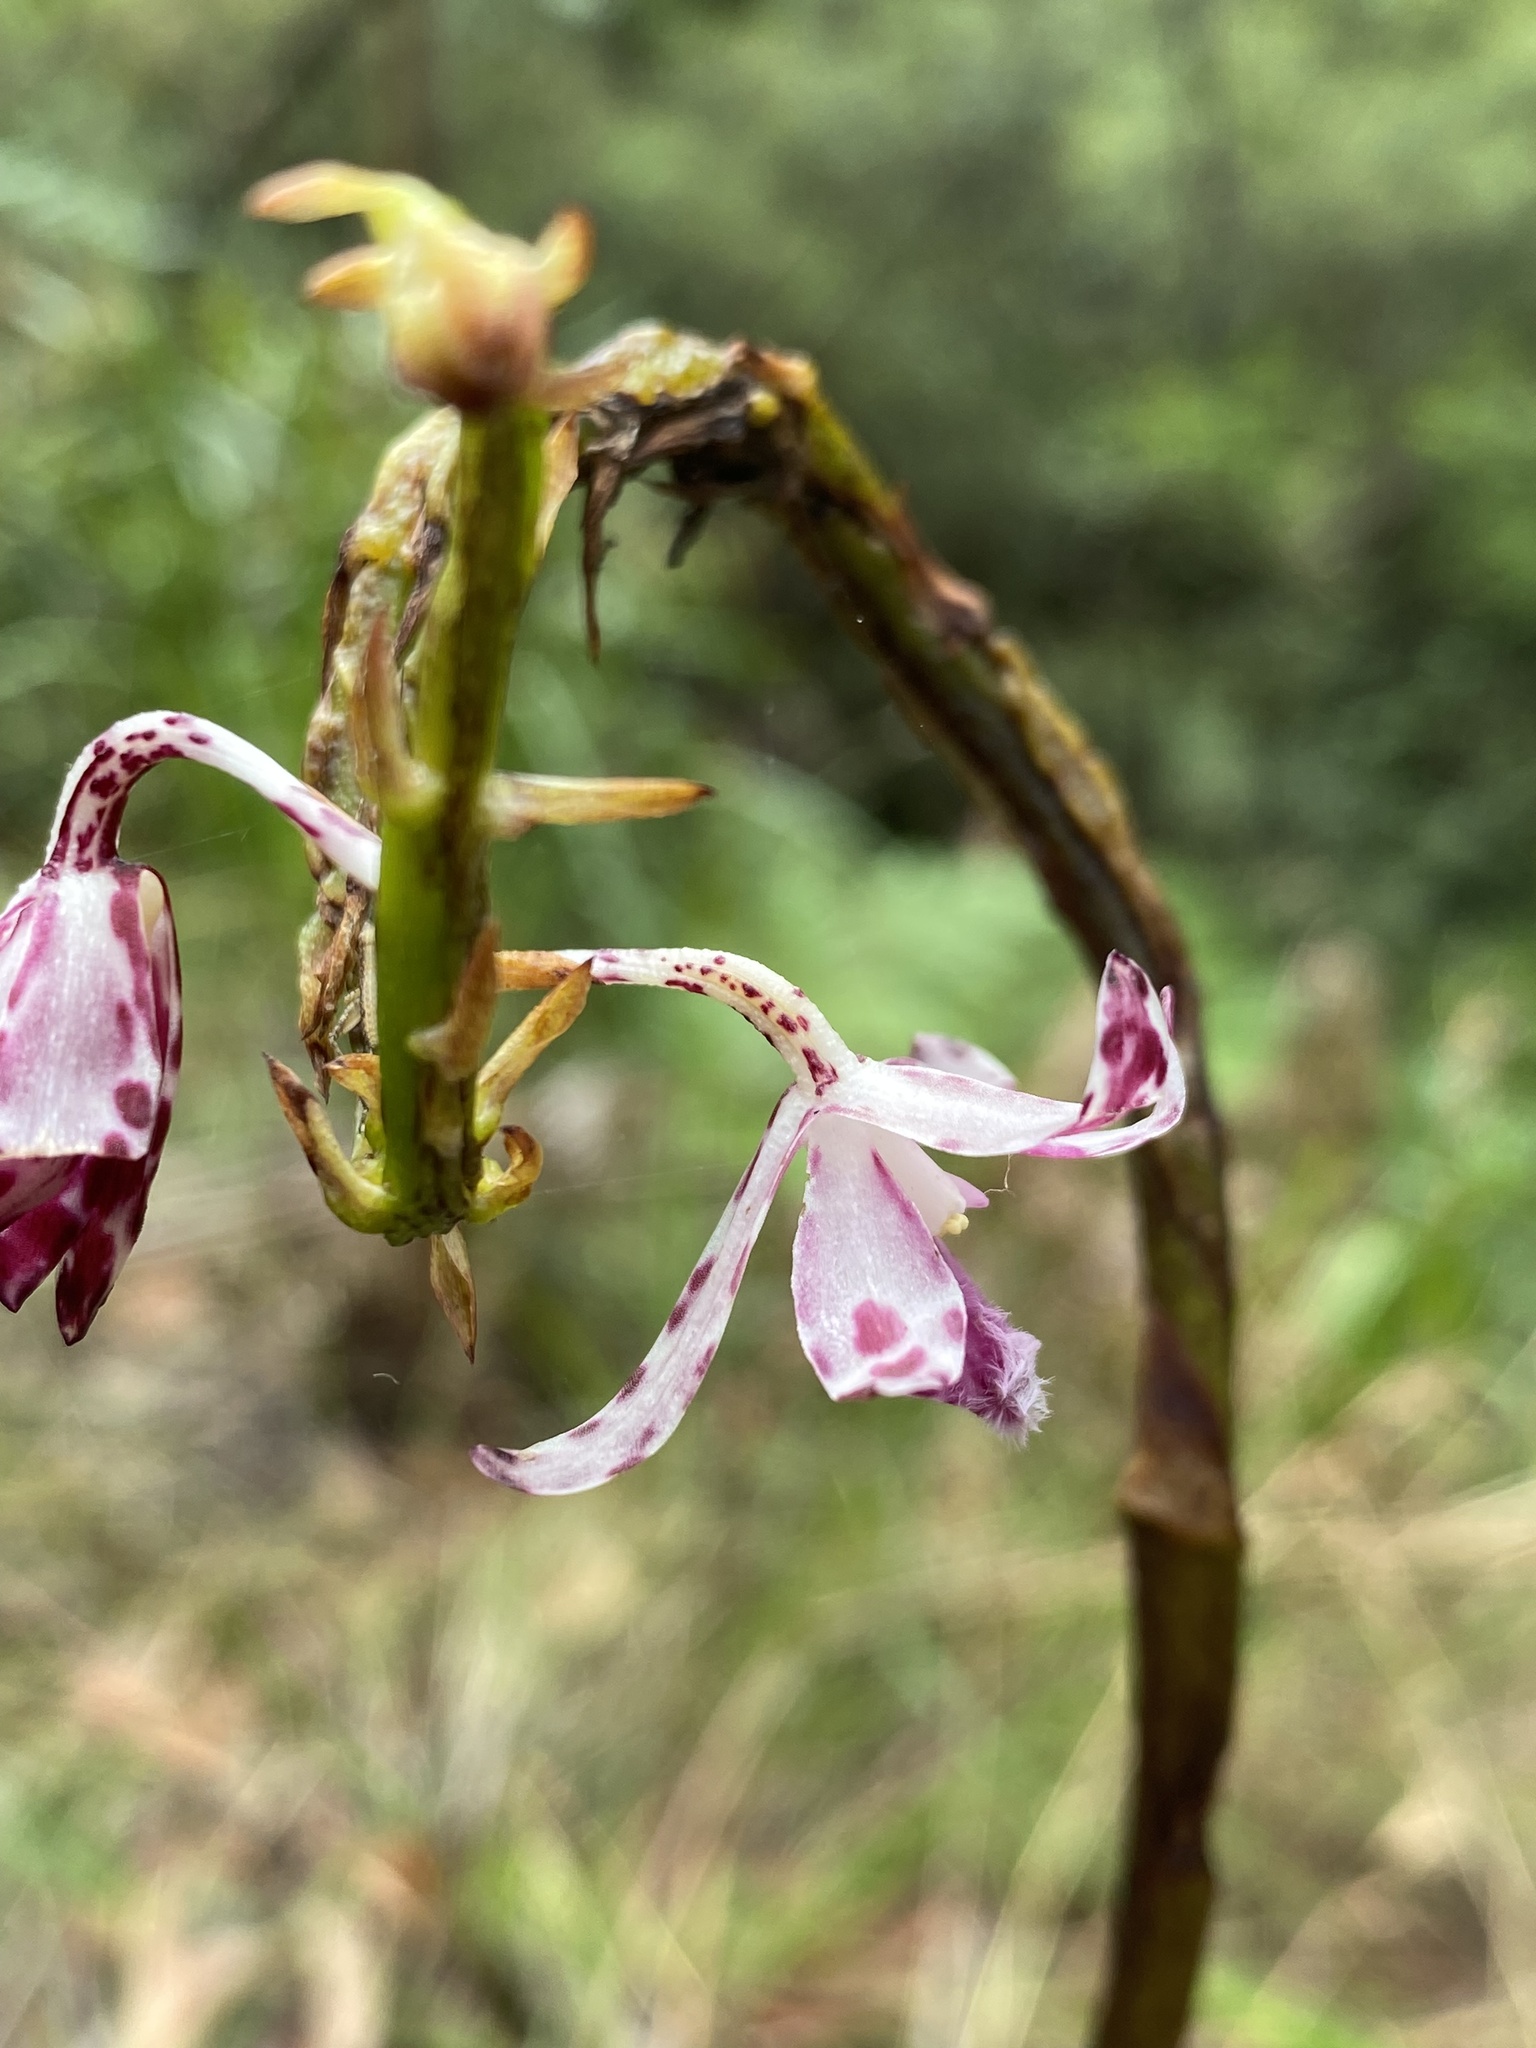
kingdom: Plantae
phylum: Tracheophyta
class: Liliopsida
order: Asparagales
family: Orchidaceae
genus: Dipodium
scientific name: Dipodium variegatum
